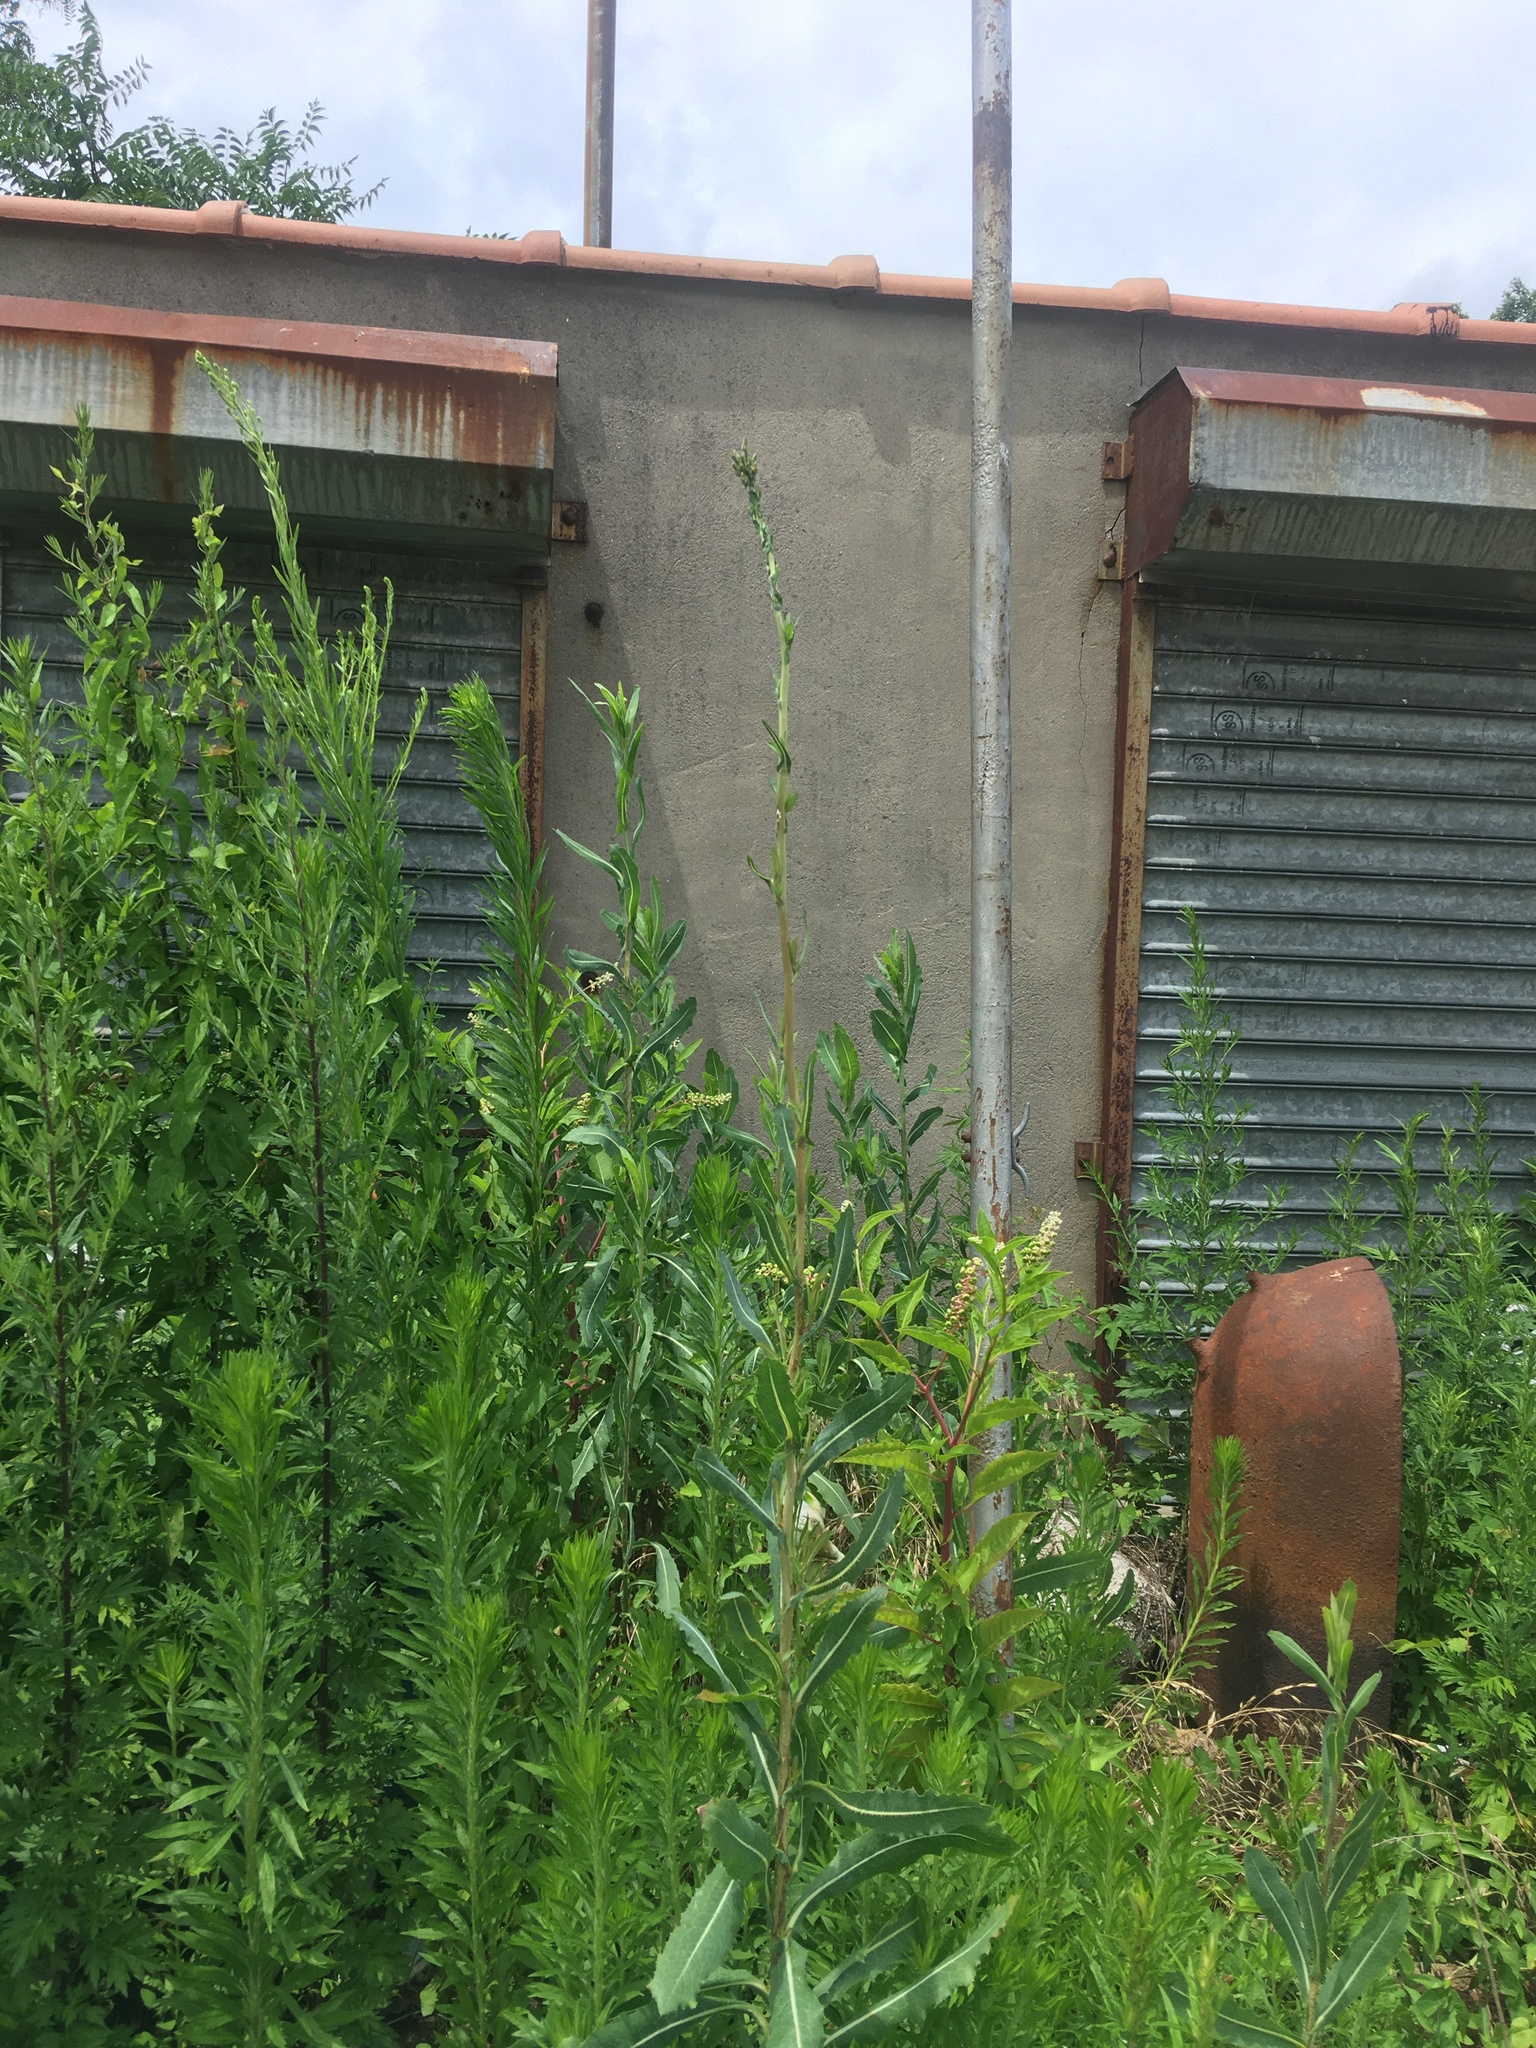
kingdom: Plantae
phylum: Tracheophyta
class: Magnoliopsida
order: Asterales
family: Asteraceae
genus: Lactuca
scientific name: Lactuca serriola
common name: Prickly lettuce
